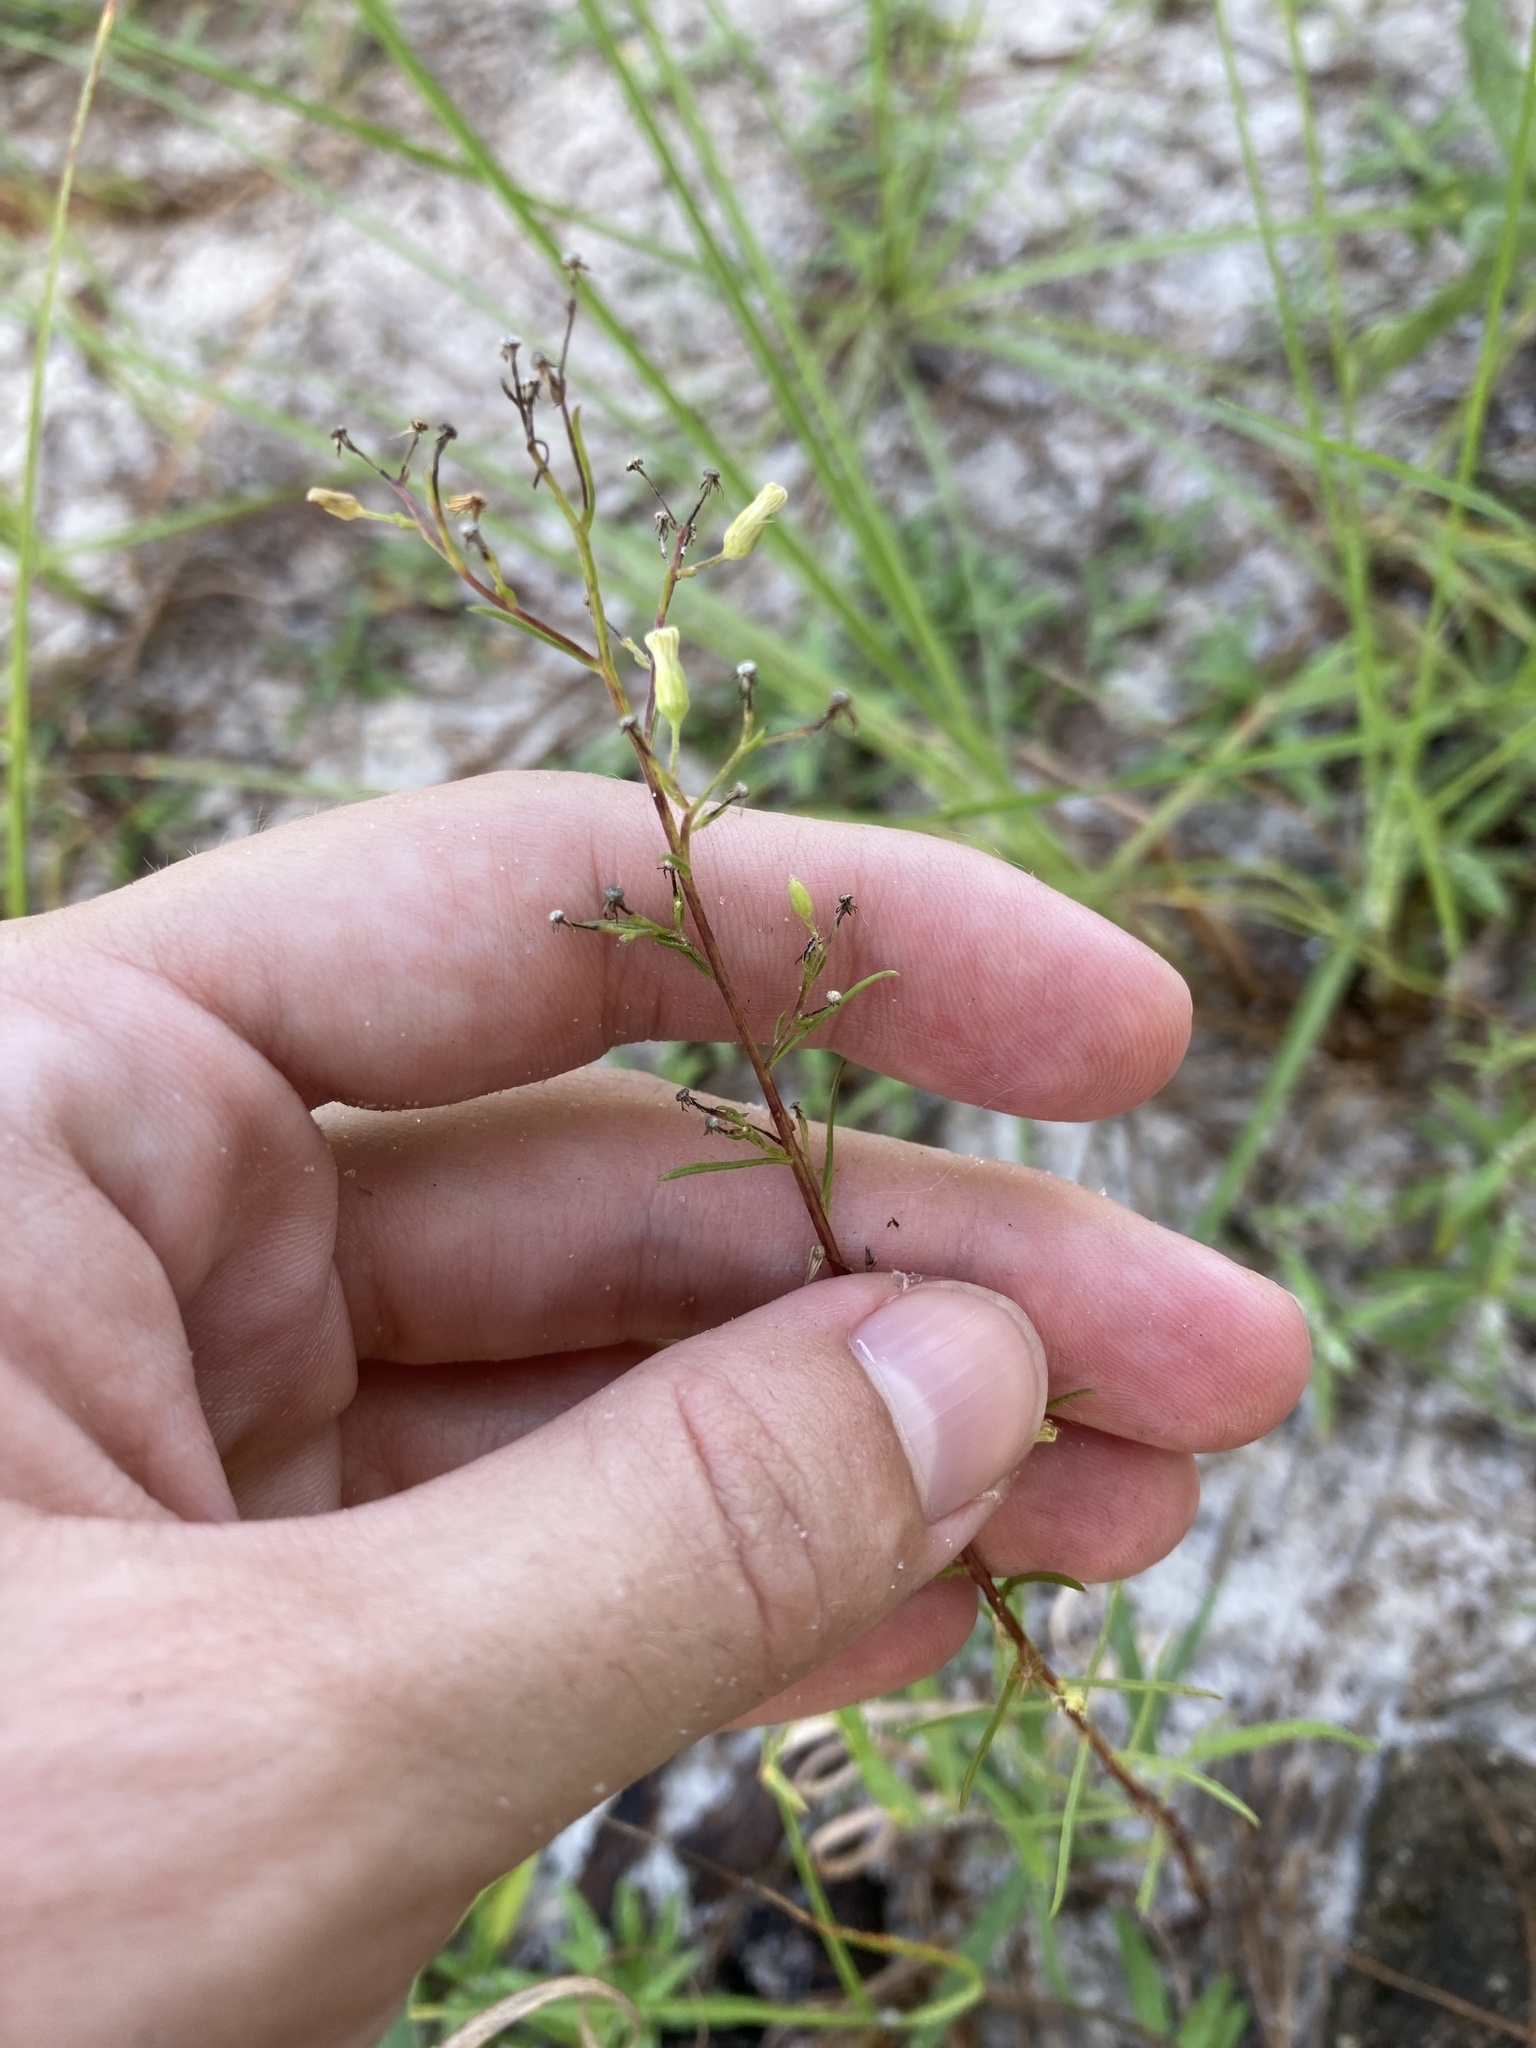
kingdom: Plantae
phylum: Tracheophyta
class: Magnoliopsida
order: Asterales
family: Asteraceae
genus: Erigeron
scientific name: Erigeron canadensis
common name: Canadian fleabane
